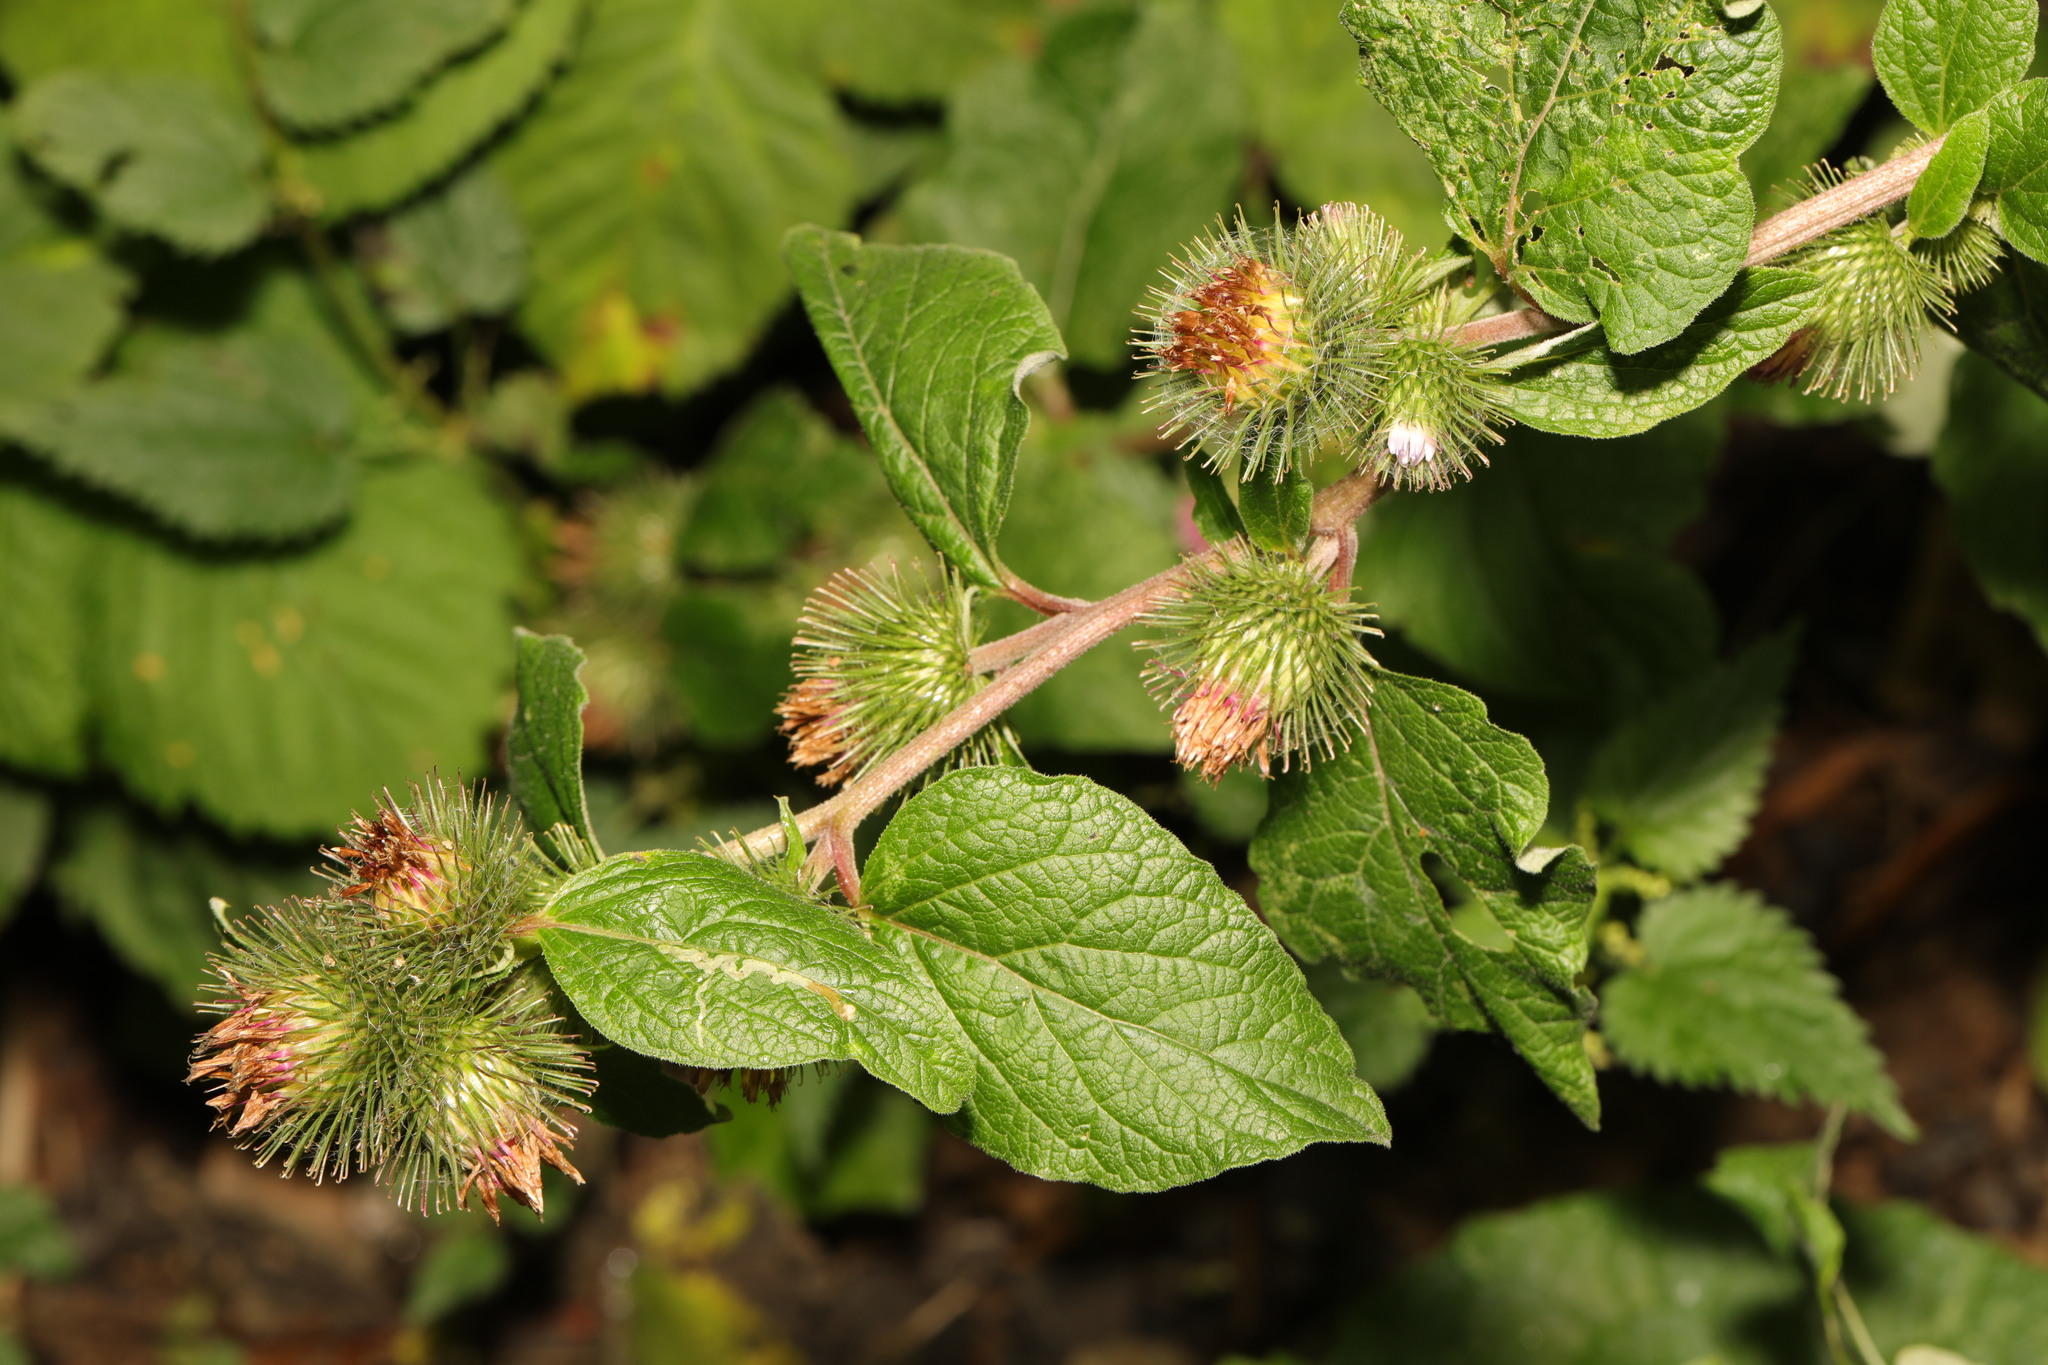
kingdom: Plantae
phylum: Tracheophyta
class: Magnoliopsida
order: Asterales
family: Asteraceae
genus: Arctium
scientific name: Arctium minus
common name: Lesser burdock
